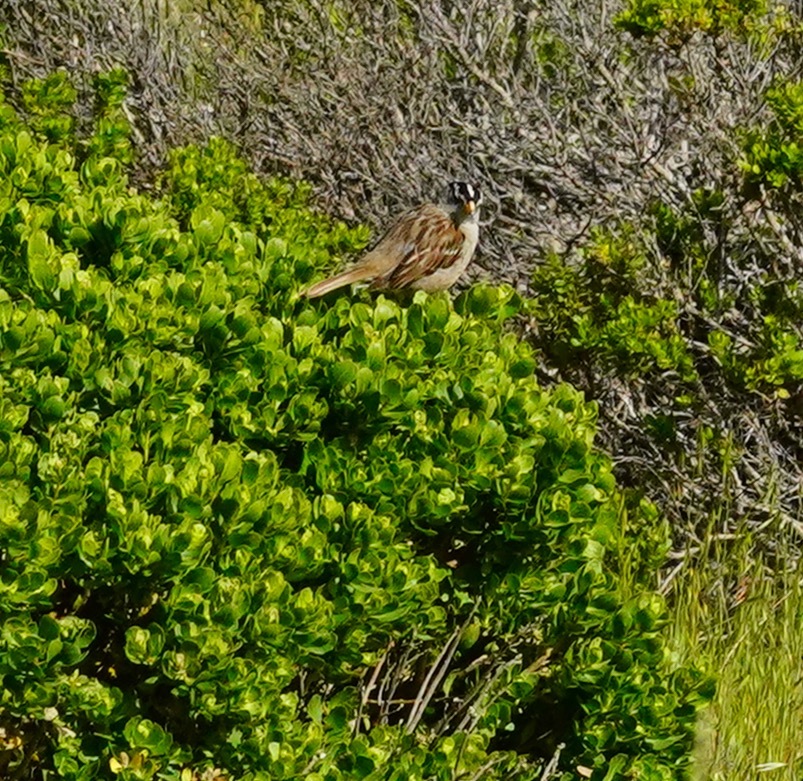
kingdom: Animalia
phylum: Chordata
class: Aves
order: Passeriformes
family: Passerellidae
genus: Zonotrichia
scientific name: Zonotrichia leucophrys
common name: White-crowned sparrow
